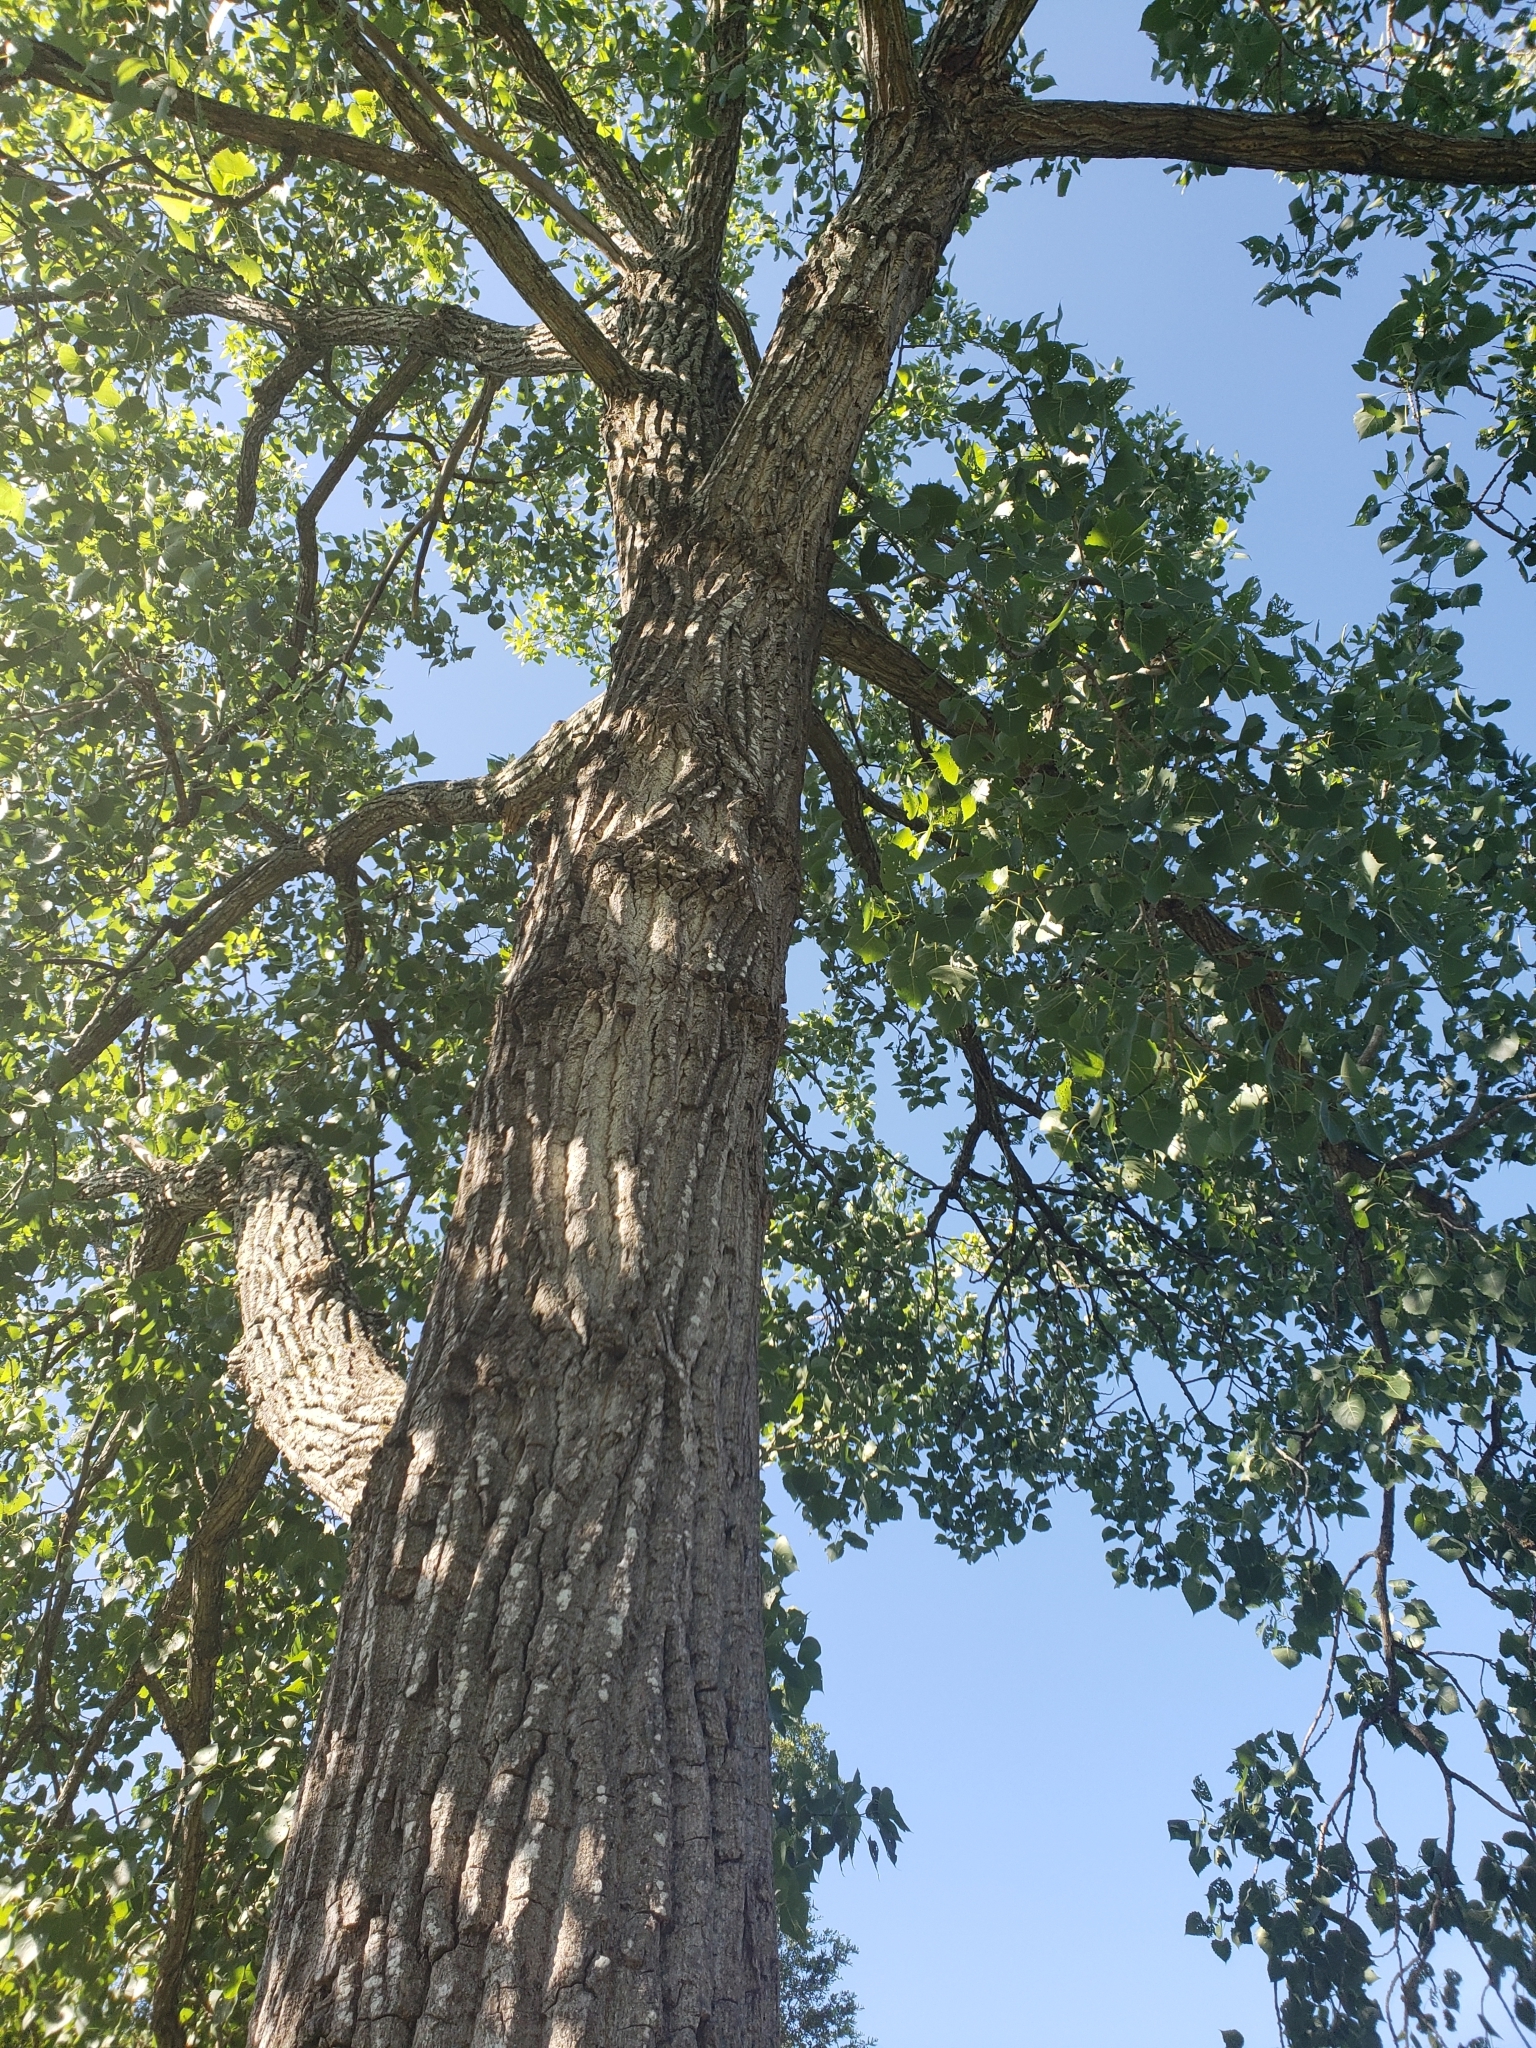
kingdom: Plantae
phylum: Tracheophyta
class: Magnoliopsida
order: Malpighiales
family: Salicaceae
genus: Populus
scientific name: Populus deltoides
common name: Eastern cottonwood
